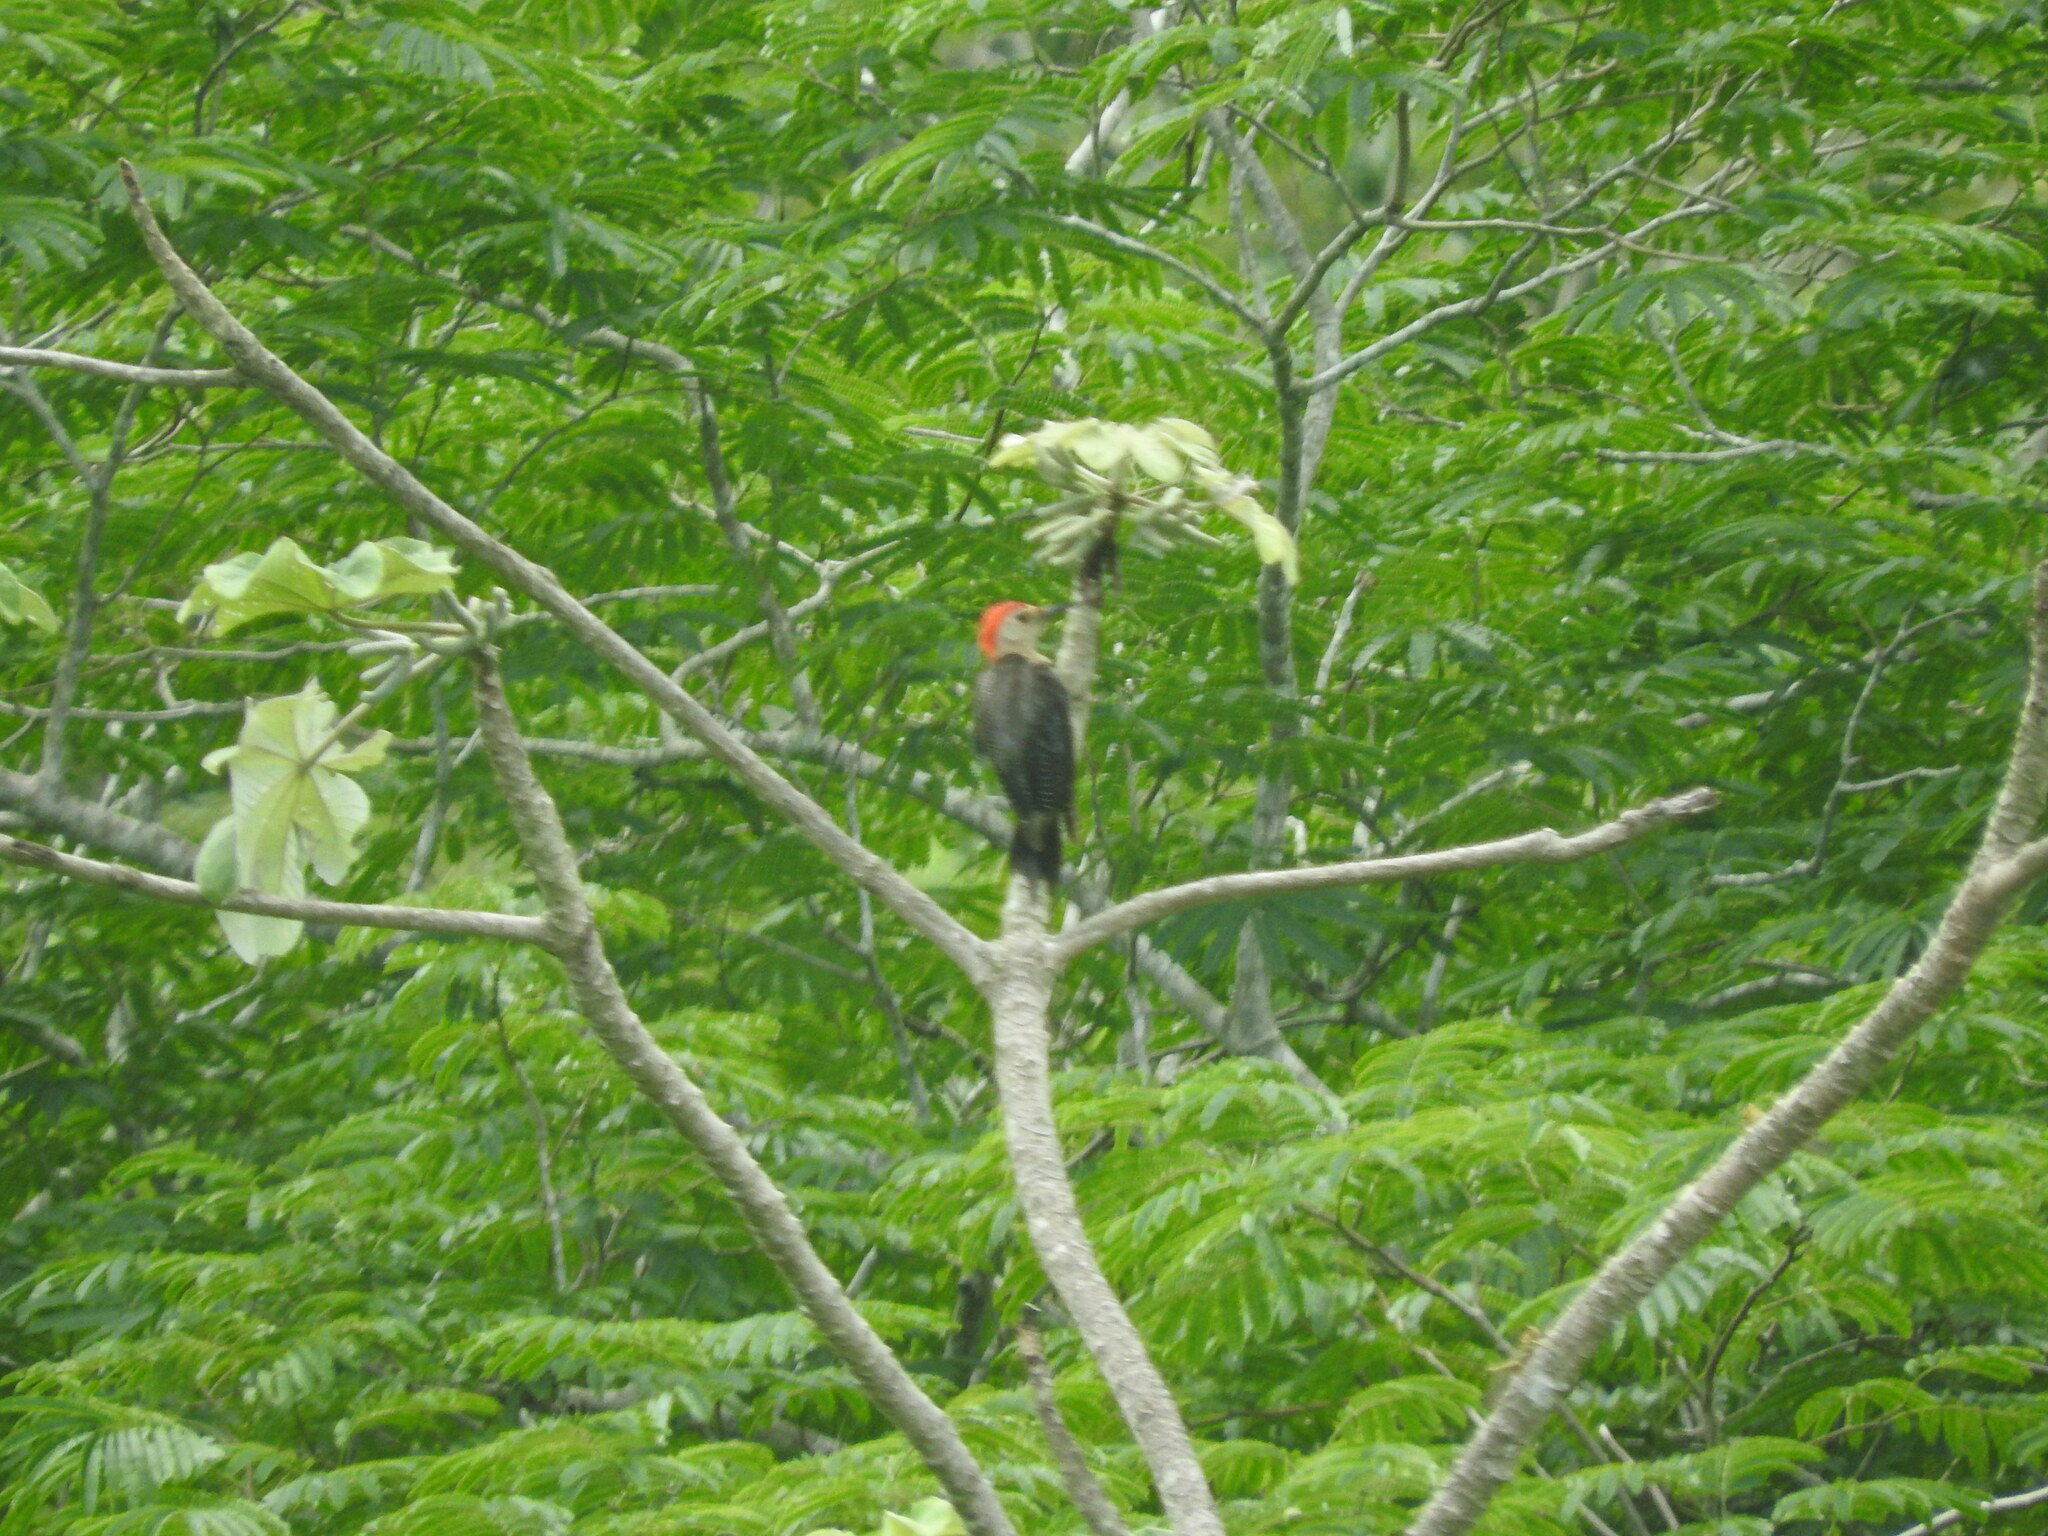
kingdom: Animalia
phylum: Chordata
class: Aves
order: Piciformes
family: Picidae
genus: Melanerpes
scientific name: Melanerpes aurifrons
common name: Golden-fronted woodpecker
